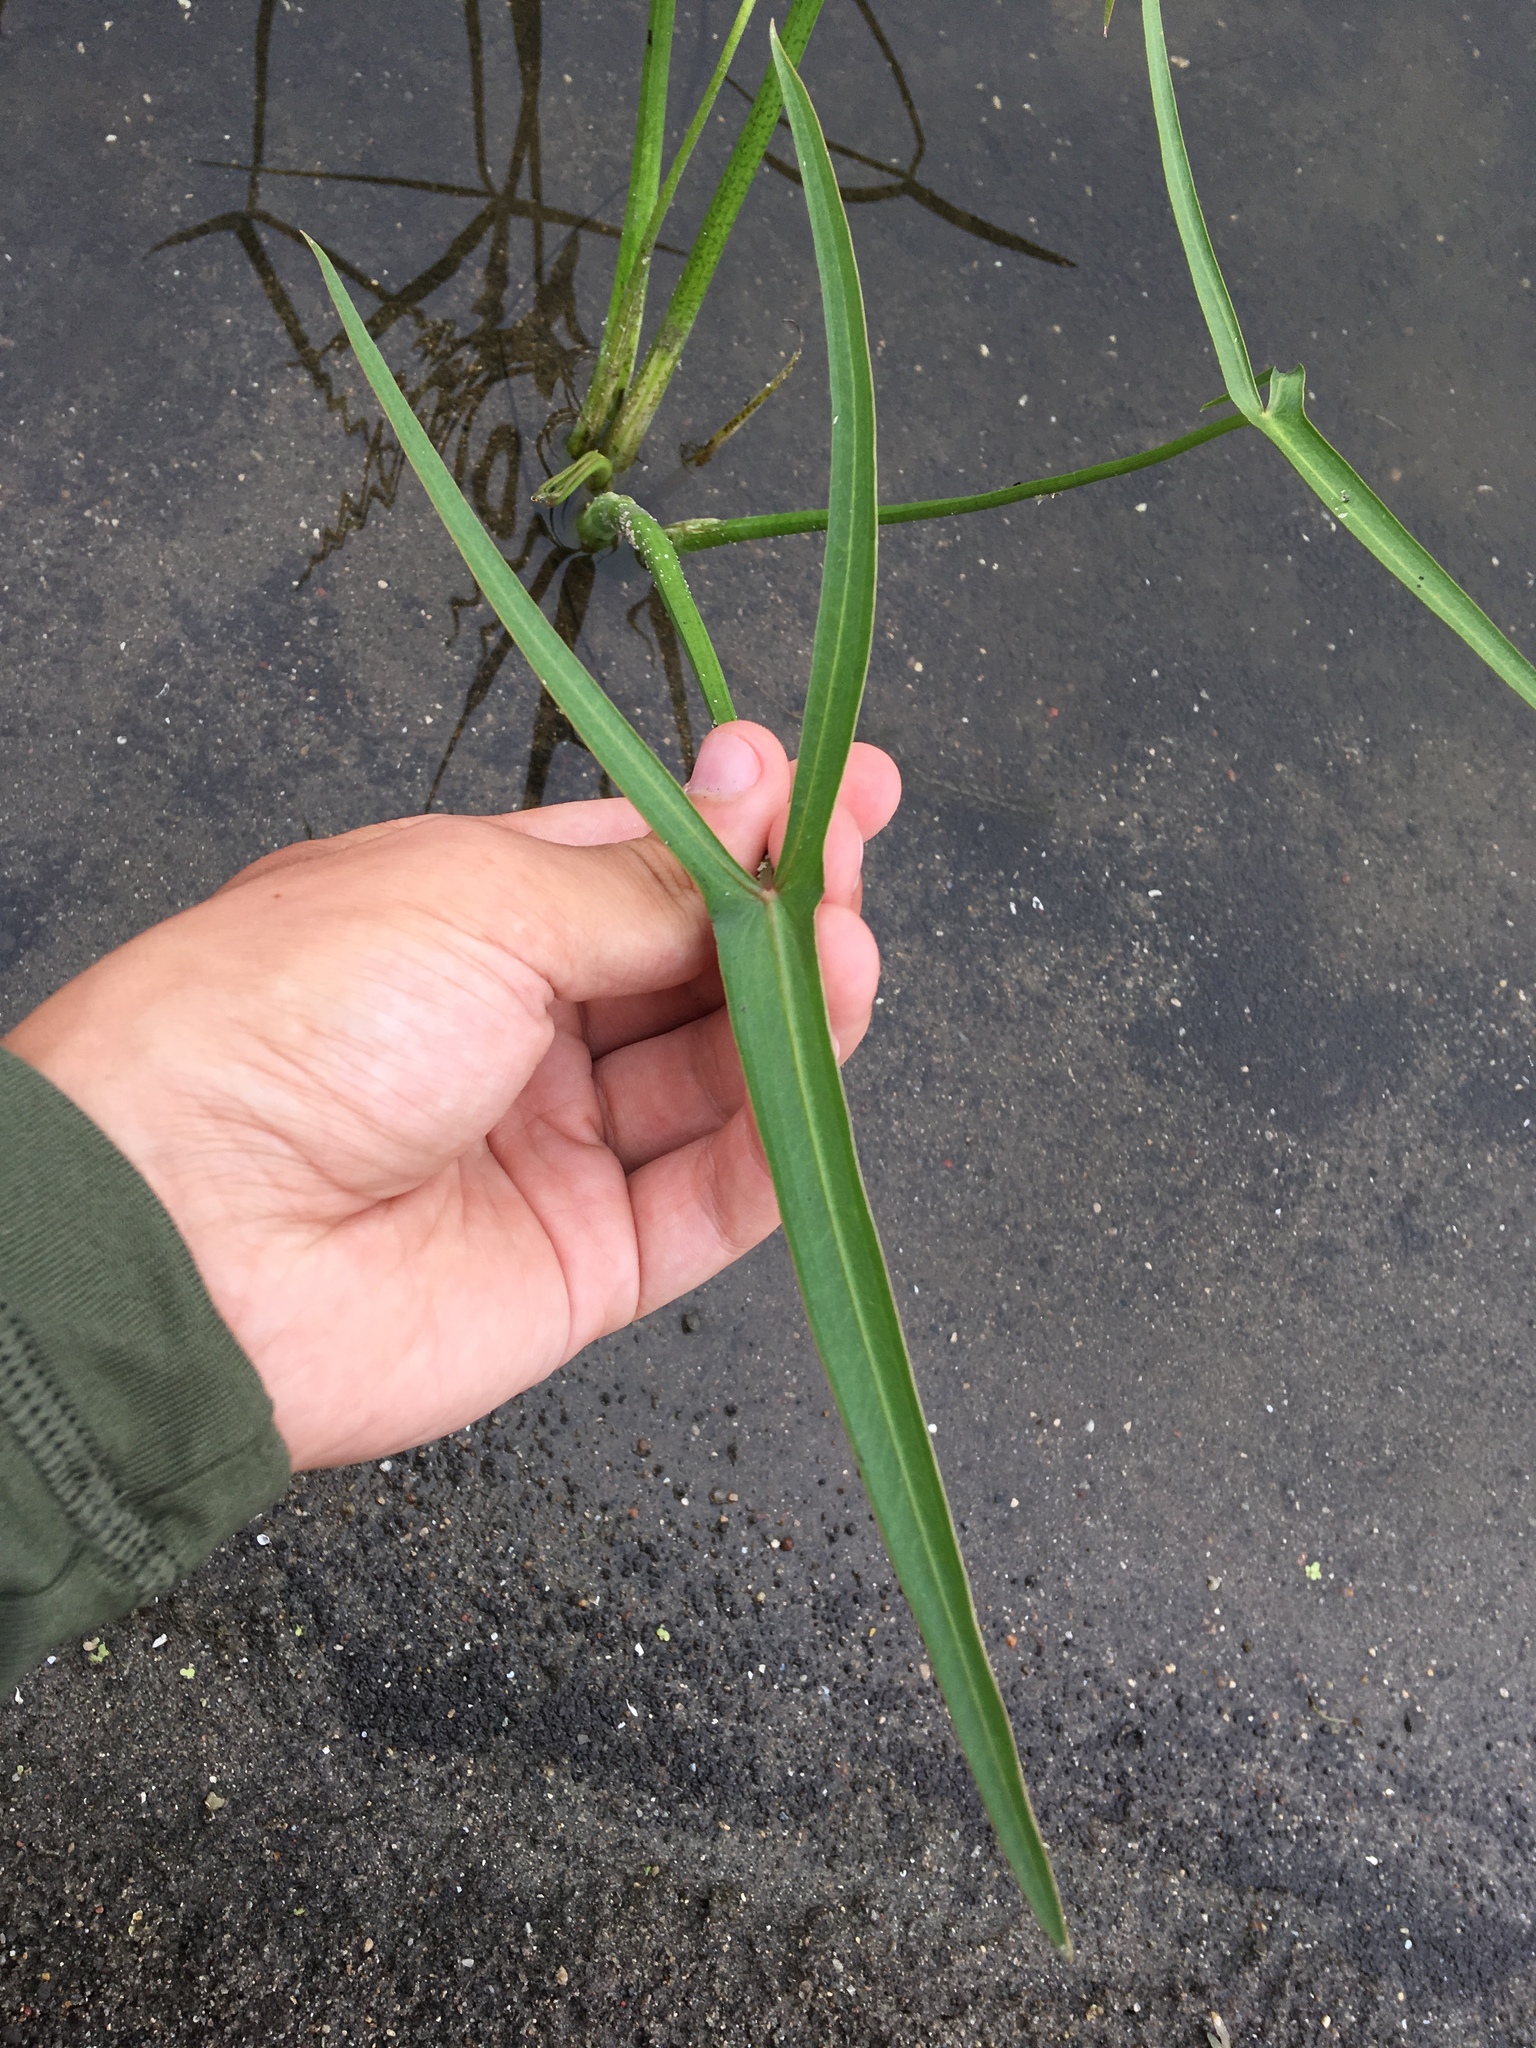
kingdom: Plantae
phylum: Tracheophyta
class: Liliopsida
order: Alismatales
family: Alismataceae
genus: Sagittaria
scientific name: Sagittaria latifolia
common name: Duck-potato
